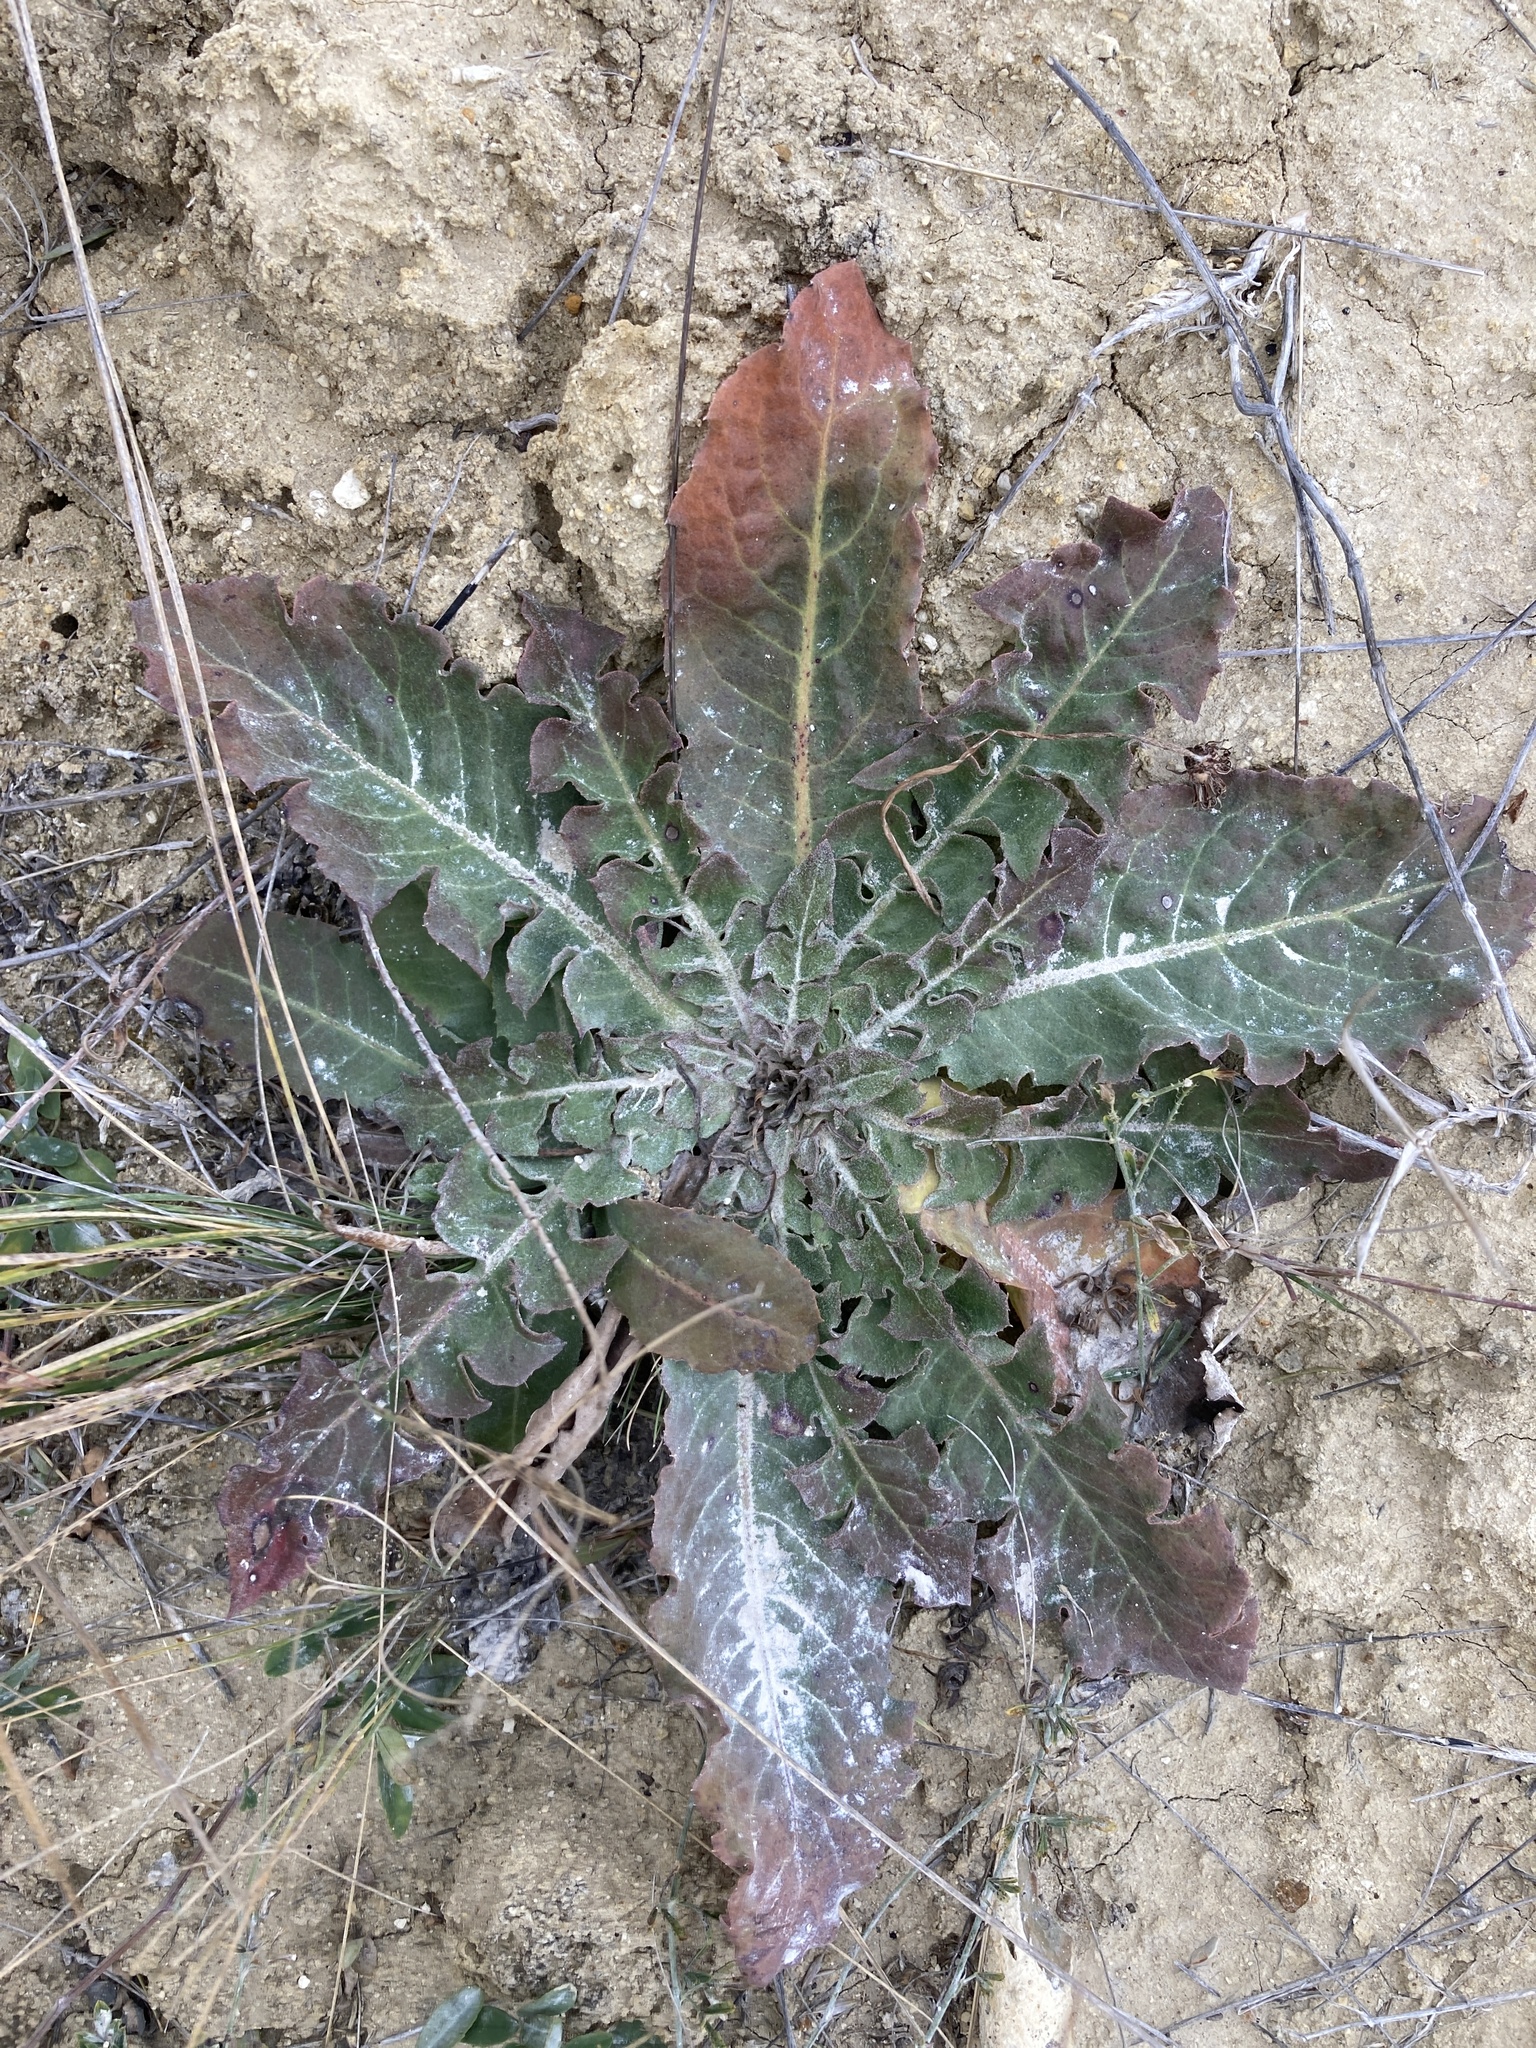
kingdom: Plantae
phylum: Tracheophyta
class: Magnoliopsida
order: Asterales
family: Asteraceae
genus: Taraxacum
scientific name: Taraxacum serotinum
